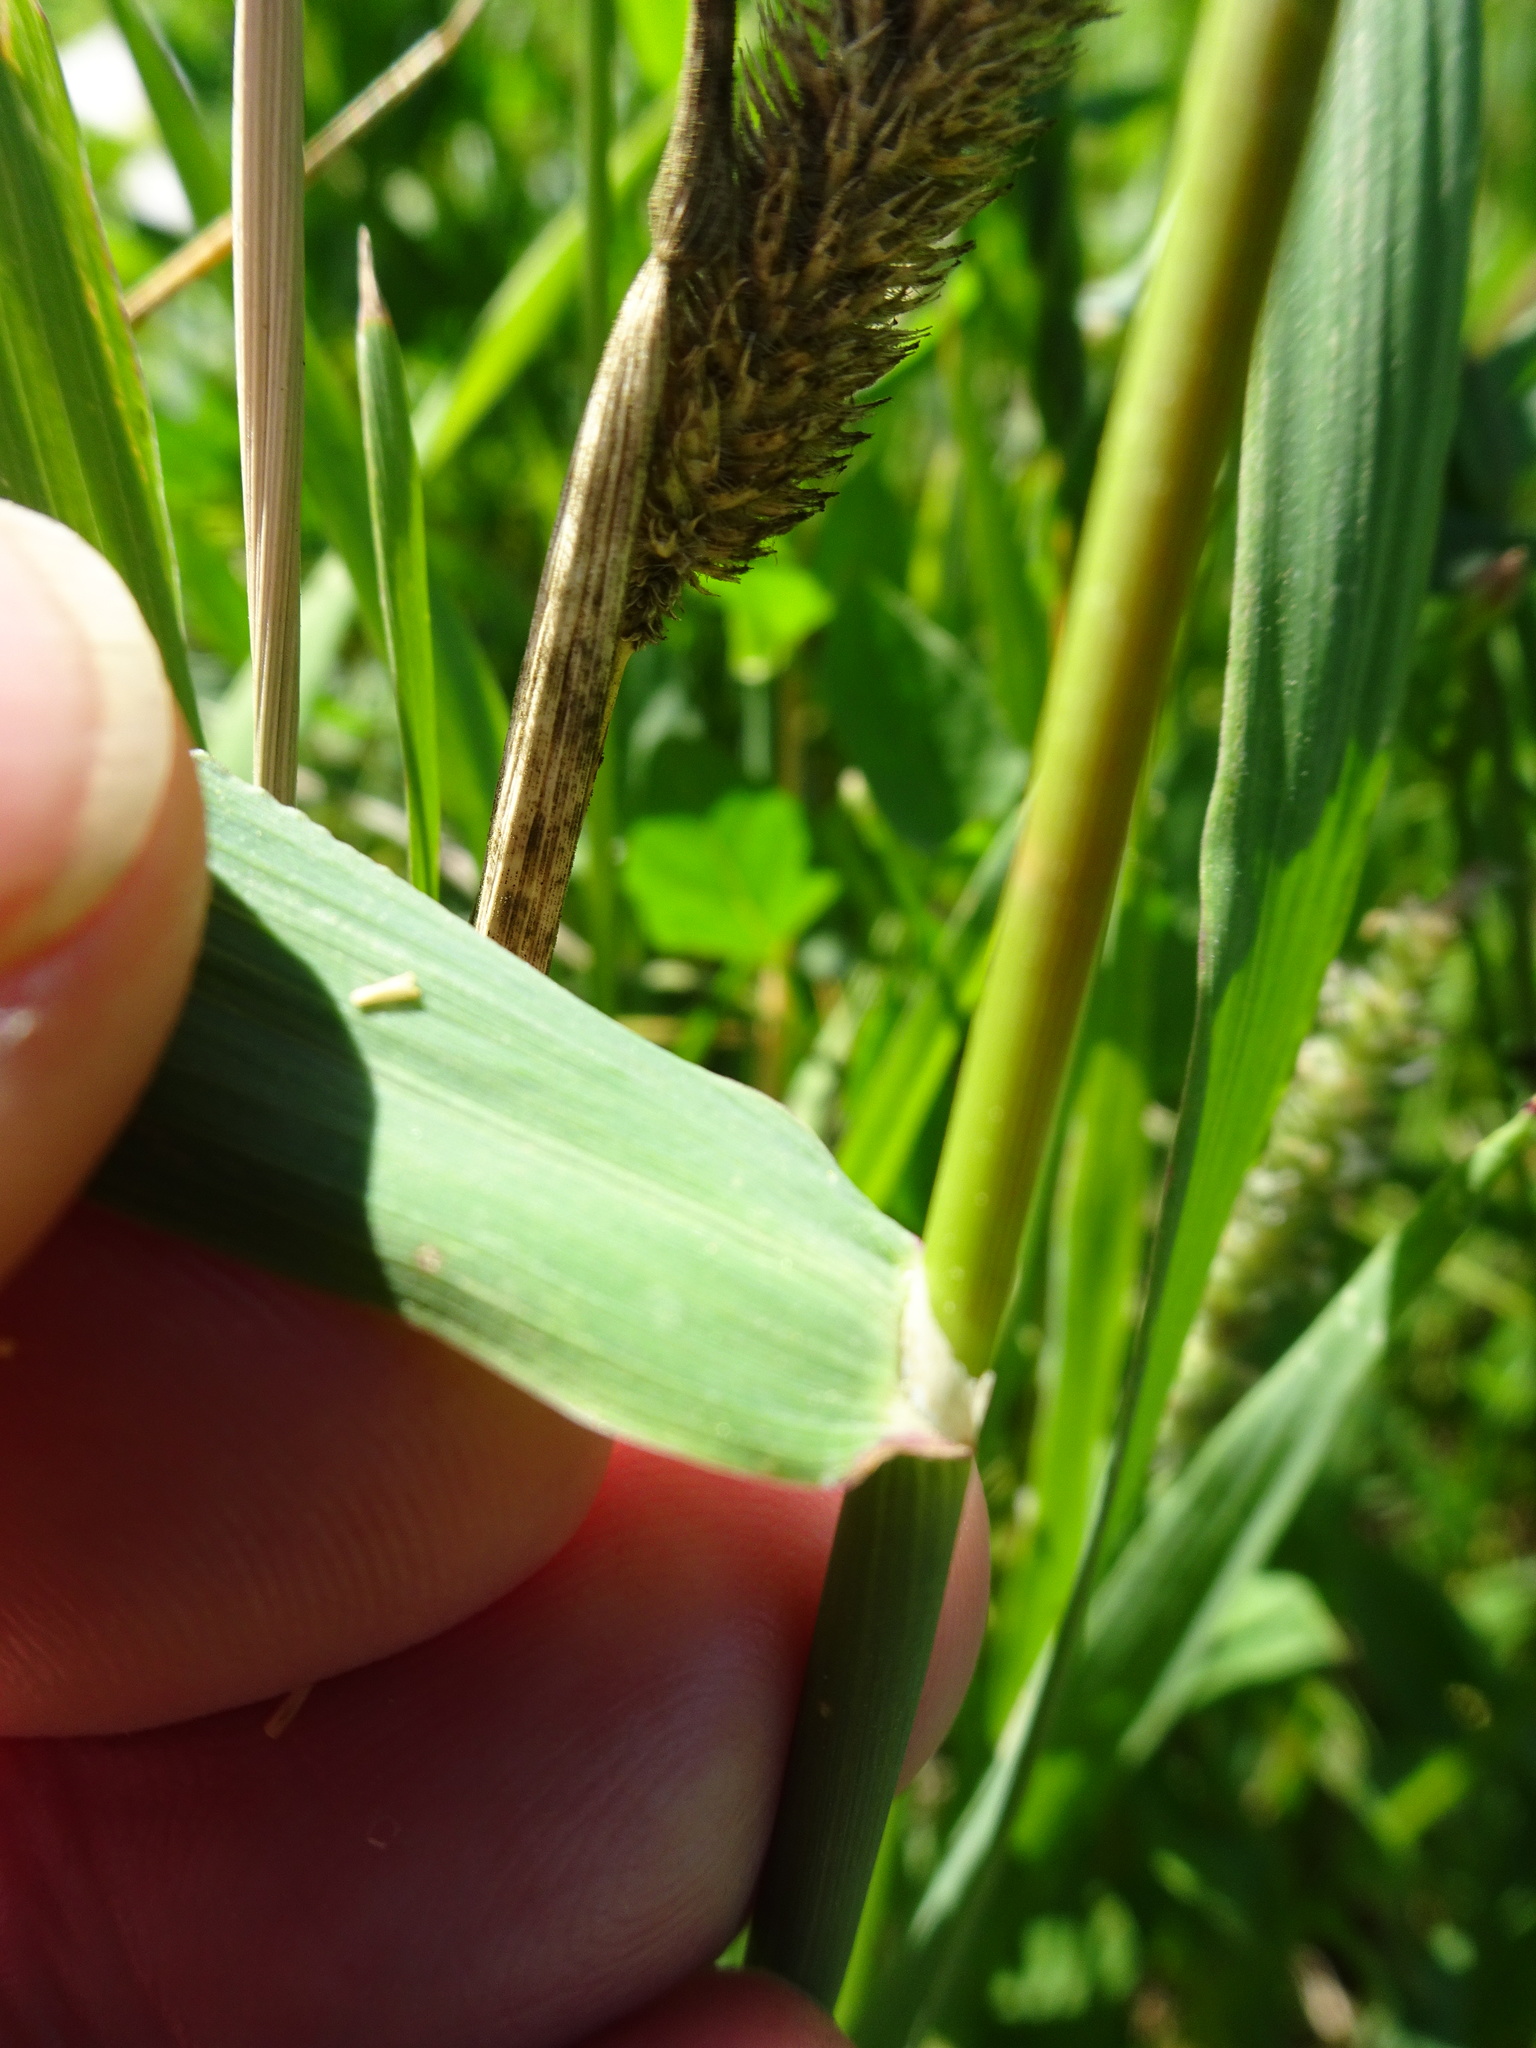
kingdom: Plantae
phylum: Tracheophyta
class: Liliopsida
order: Poales
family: Poaceae
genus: Phleum
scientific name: Phleum pratense
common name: Timothy grass
